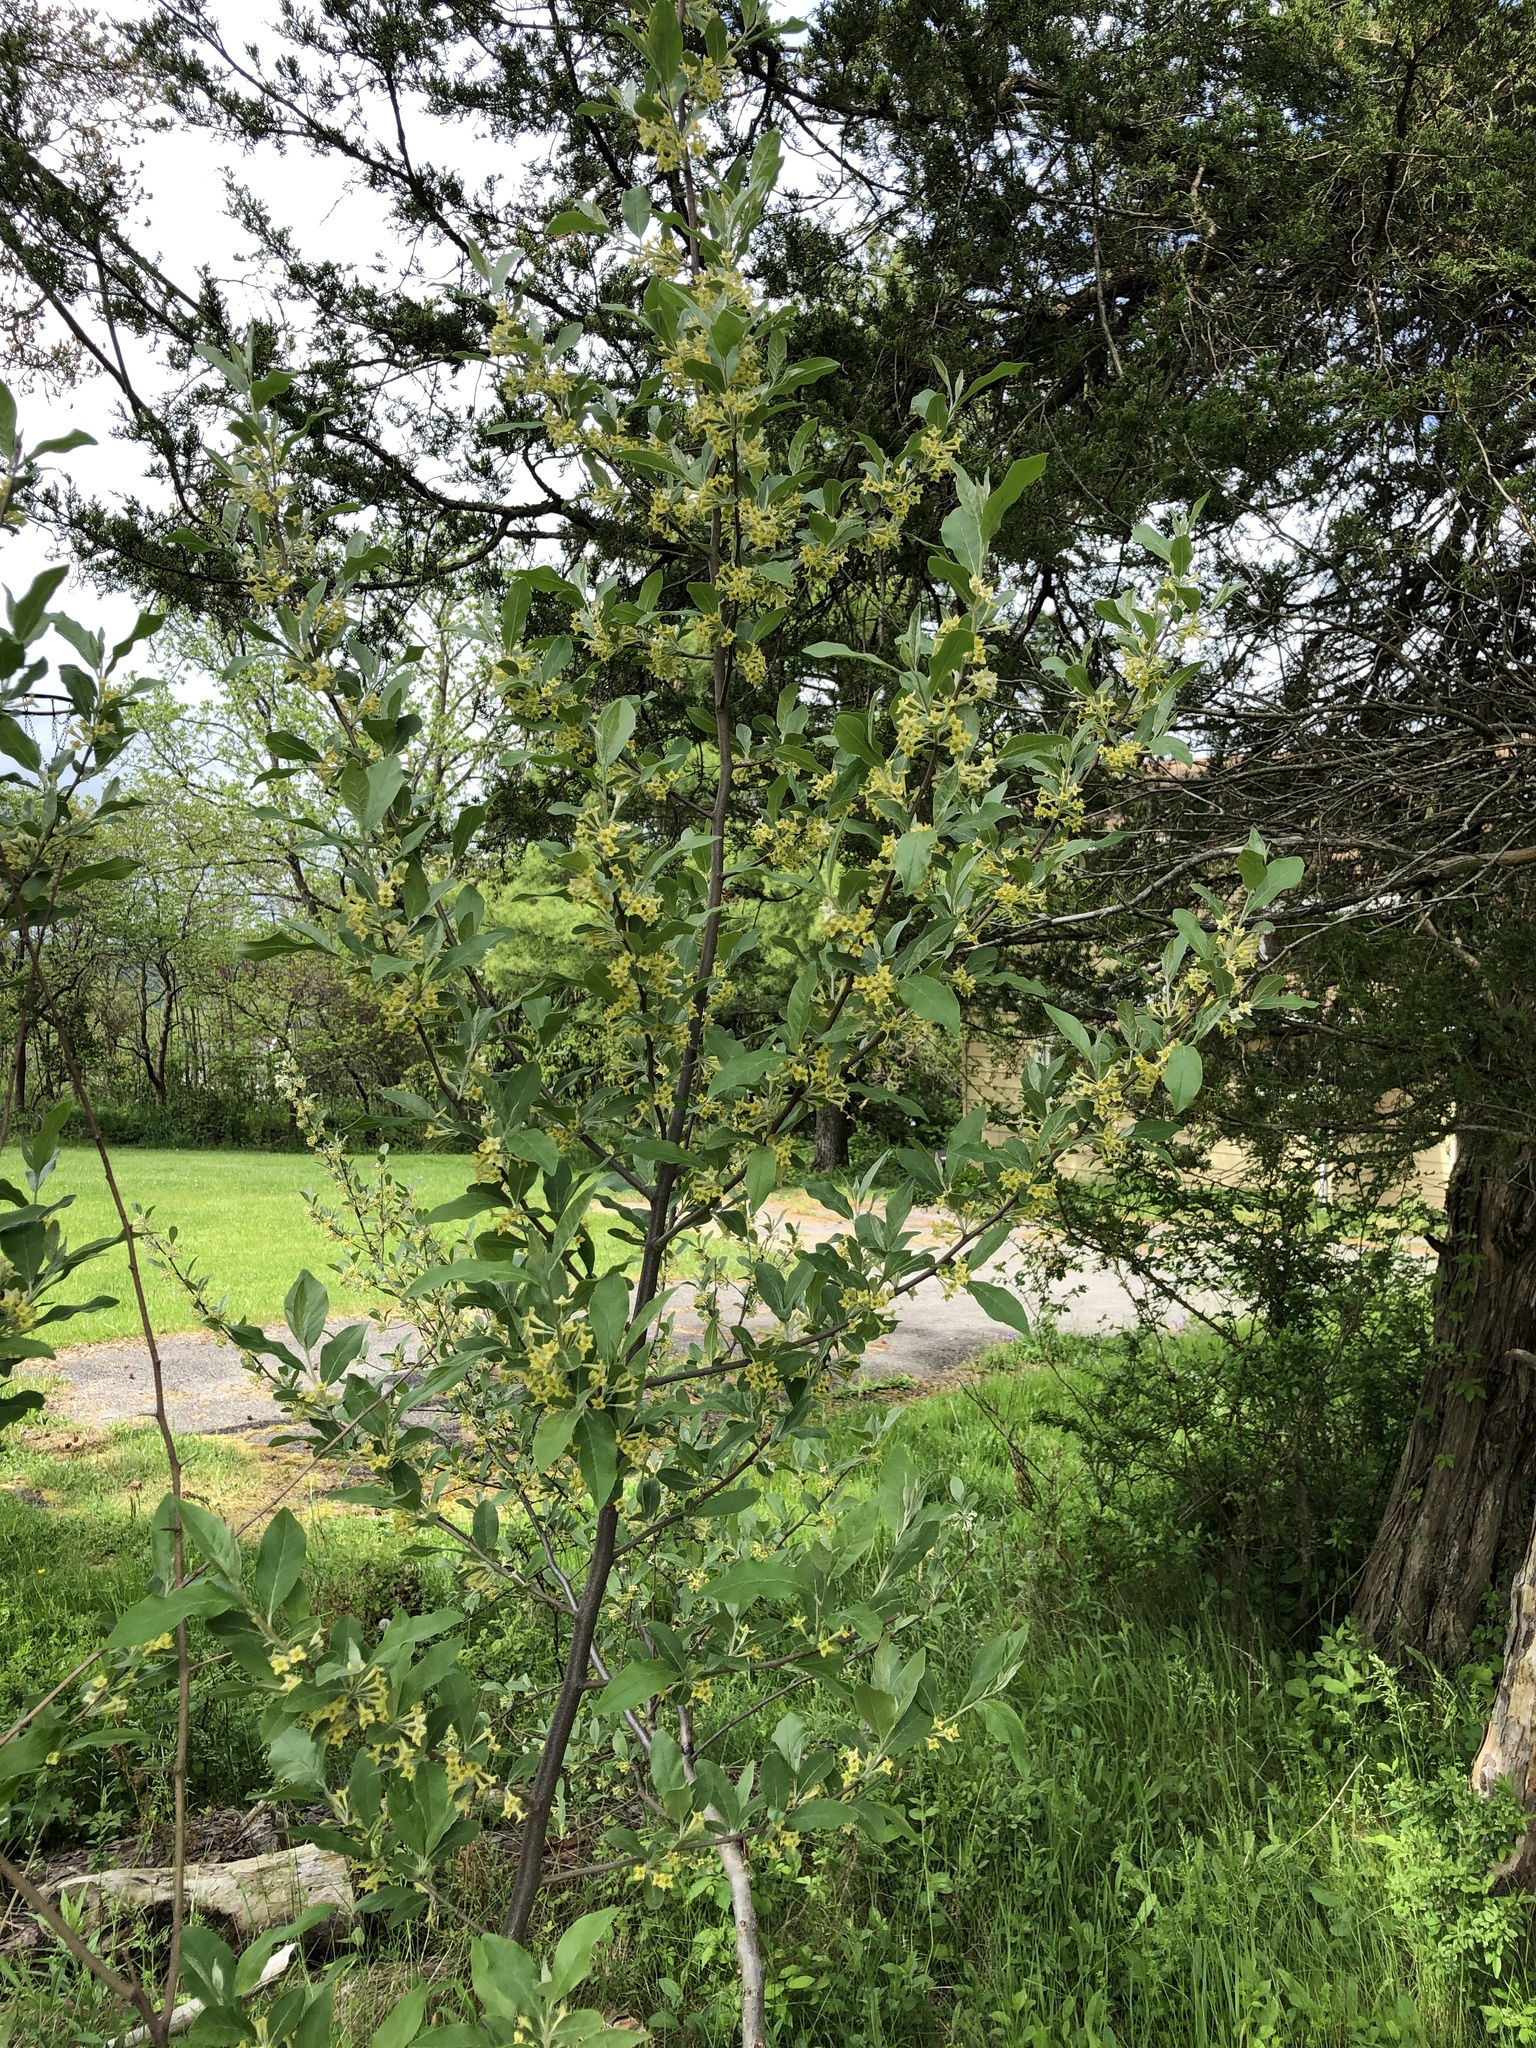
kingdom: Plantae
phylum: Tracheophyta
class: Magnoliopsida
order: Rosales
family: Elaeagnaceae
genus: Elaeagnus
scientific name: Elaeagnus umbellata
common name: Autumn olive
